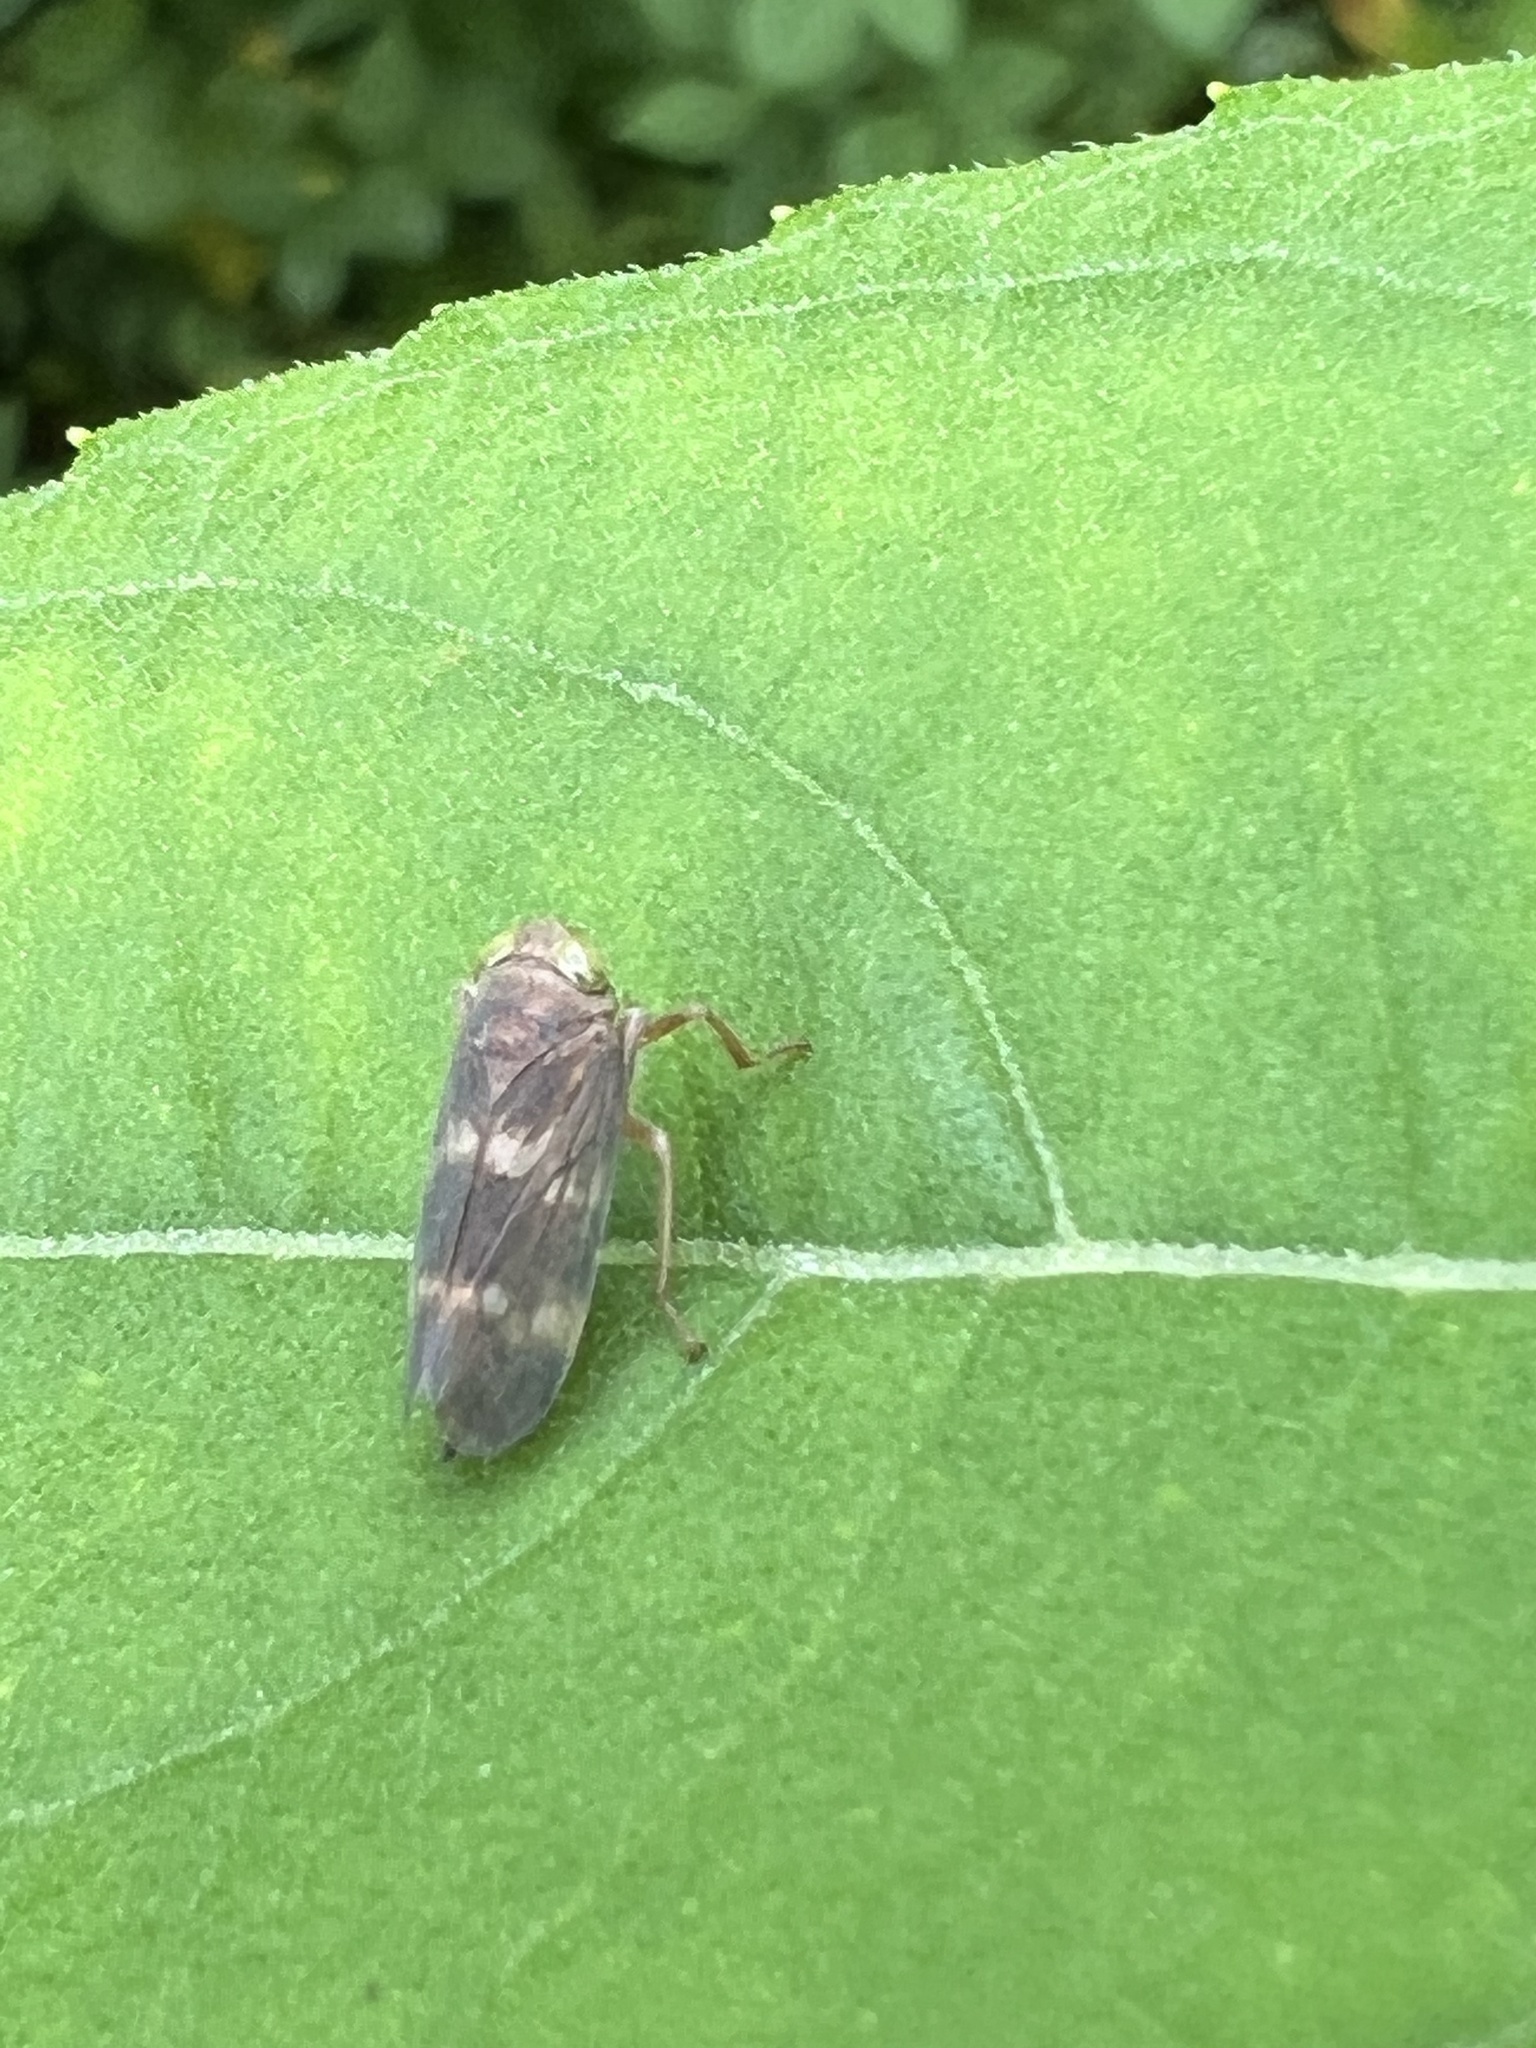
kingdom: Animalia
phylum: Arthropoda
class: Insecta
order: Hemiptera
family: Cicadellidae
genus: Jikradia
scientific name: Jikradia olitoria
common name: Coppery leafhopper
